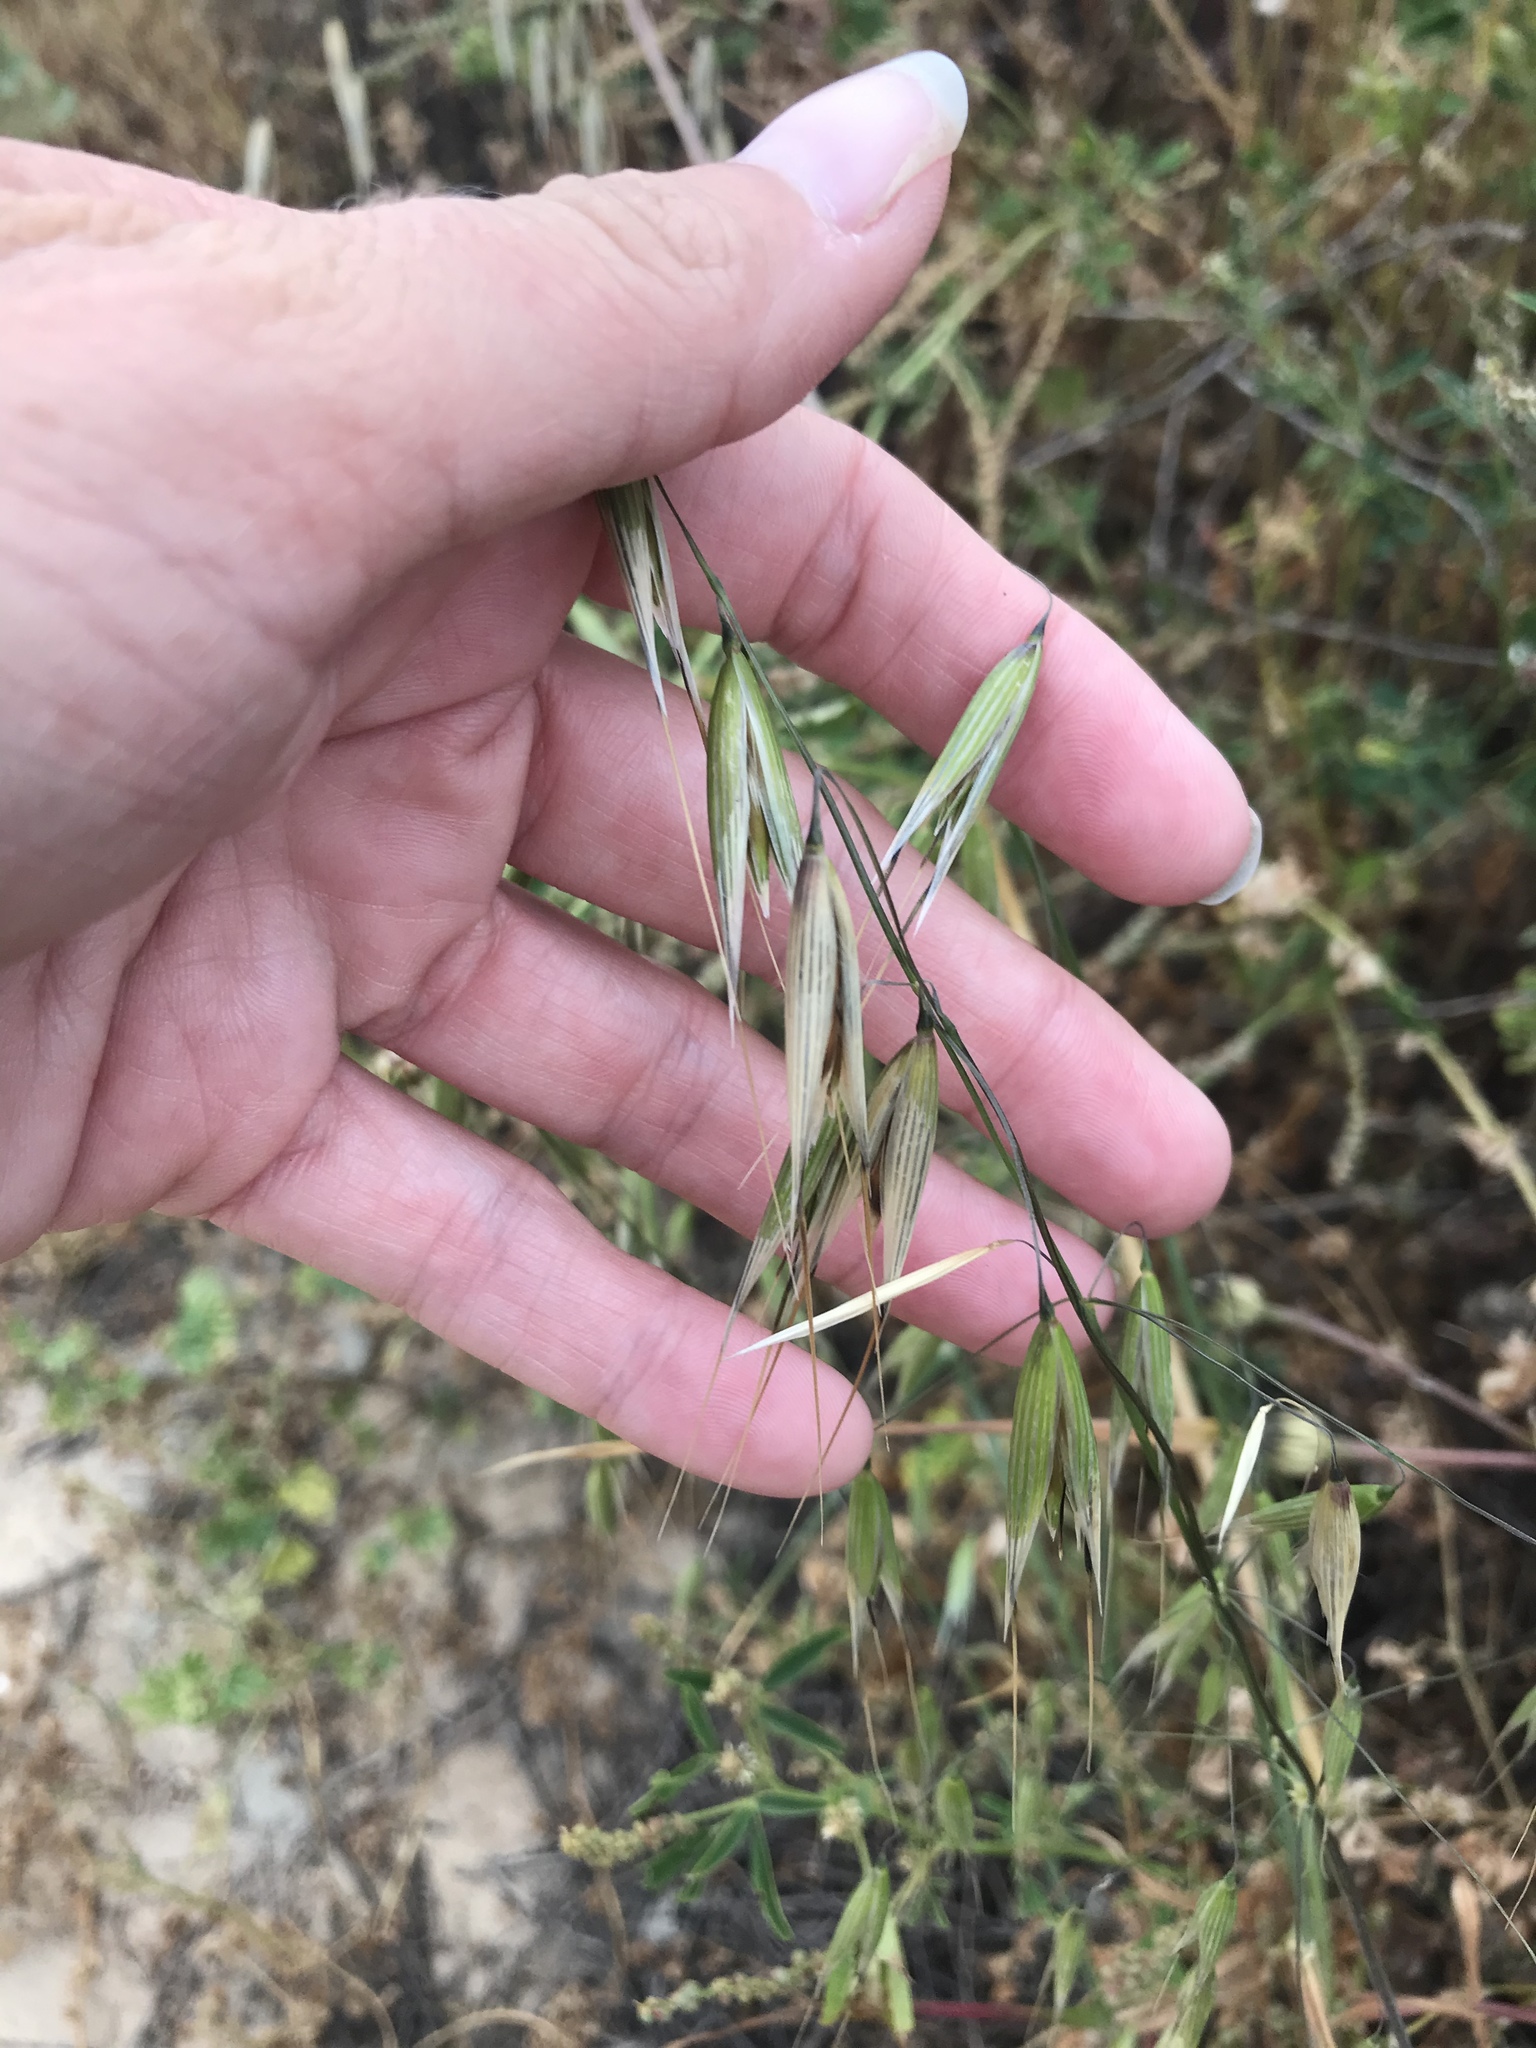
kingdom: Plantae
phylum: Tracheophyta
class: Liliopsida
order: Poales
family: Poaceae
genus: Avena
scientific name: Avena fatua
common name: Wild oat
